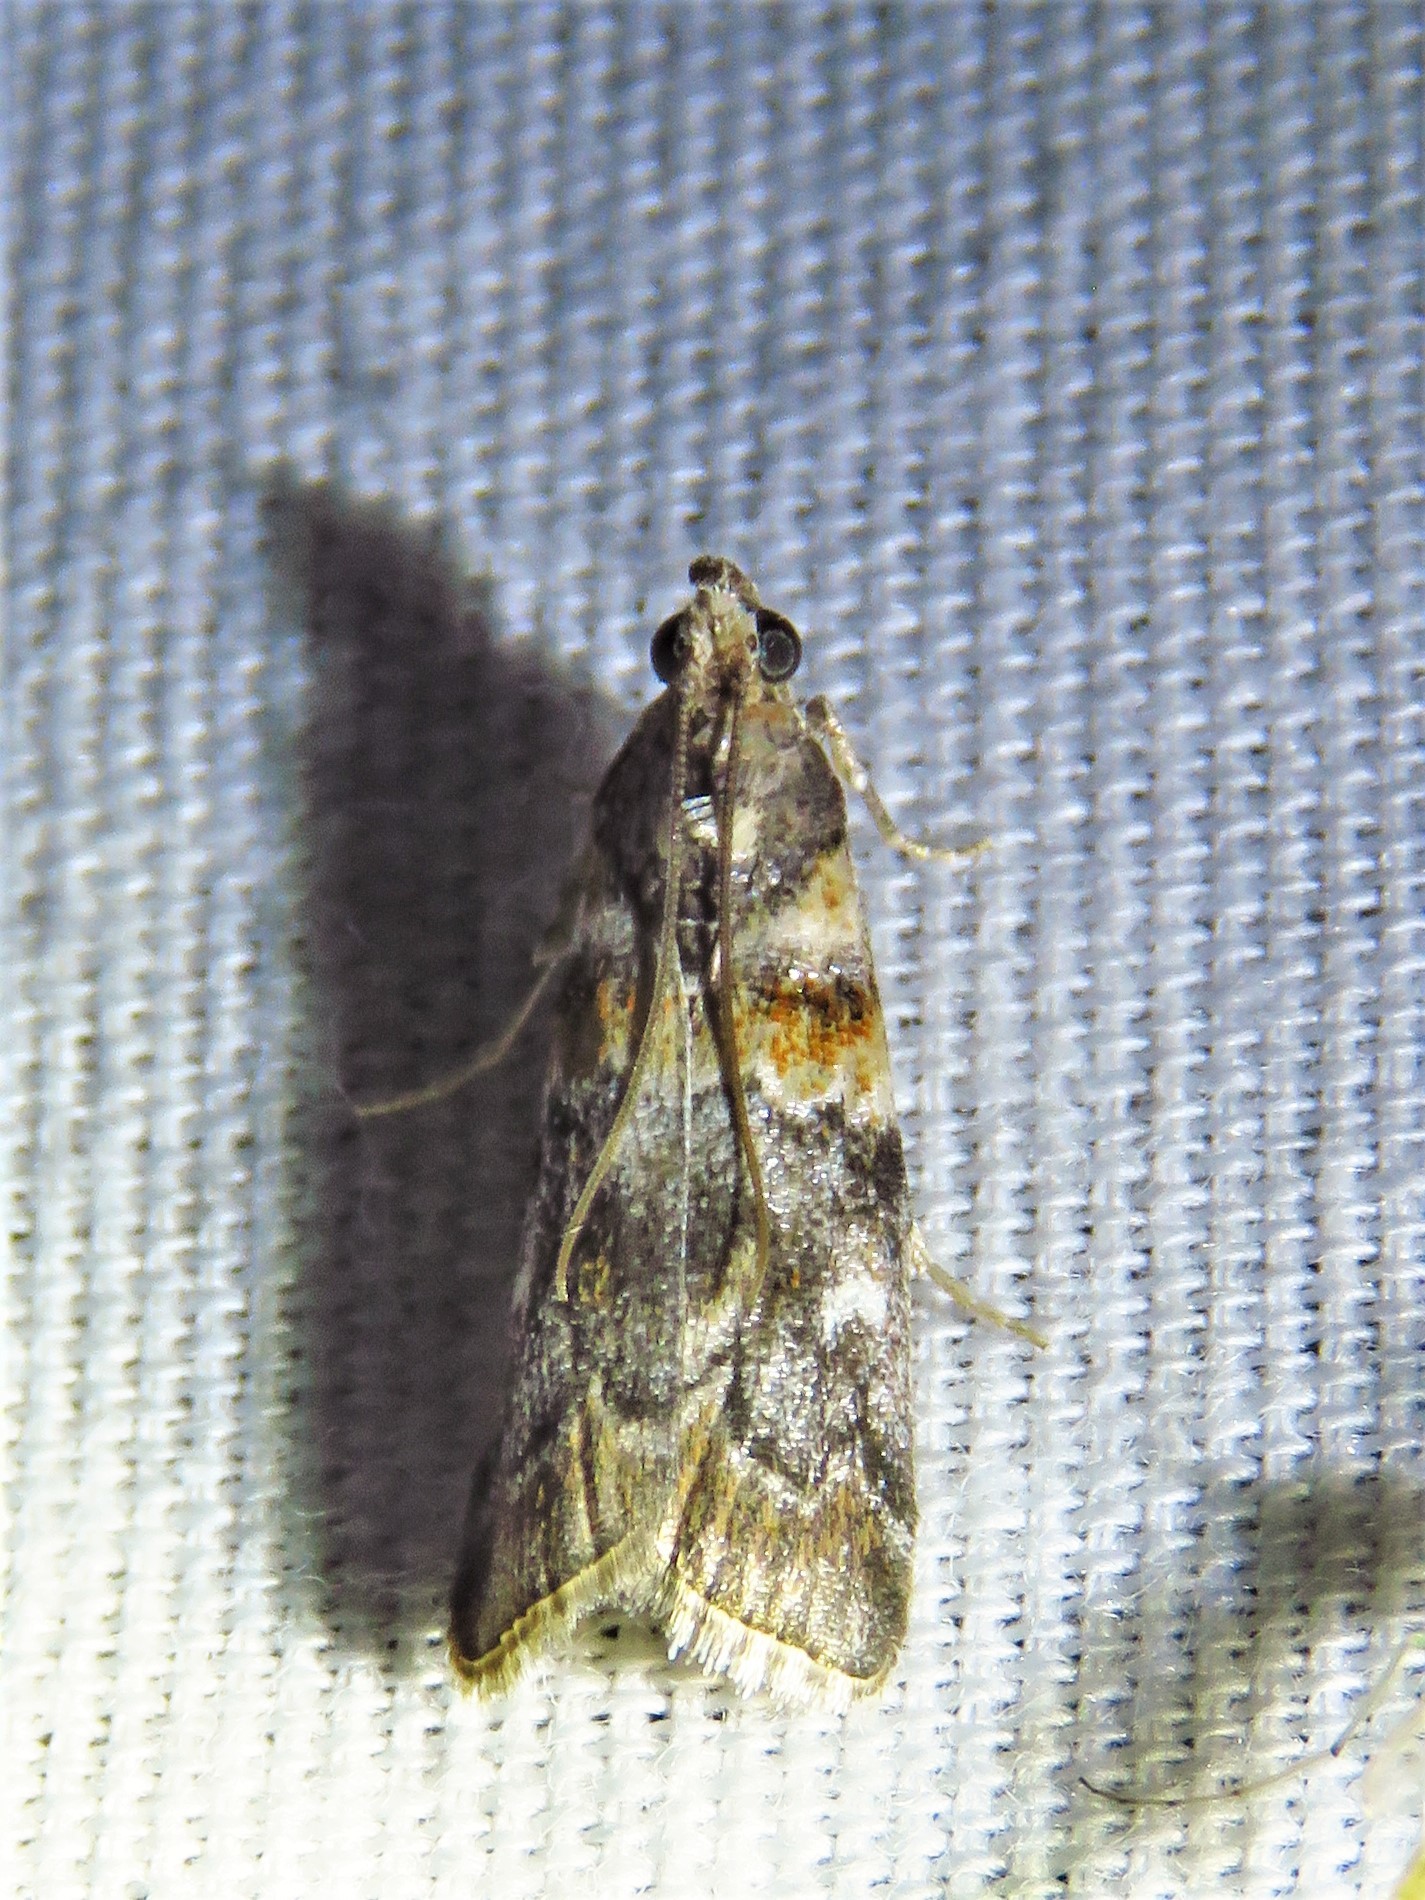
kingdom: Animalia
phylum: Arthropoda
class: Insecta
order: Lepidoptera
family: Pyralidae
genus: Dioryctria
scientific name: Dioryctria caesirufella
